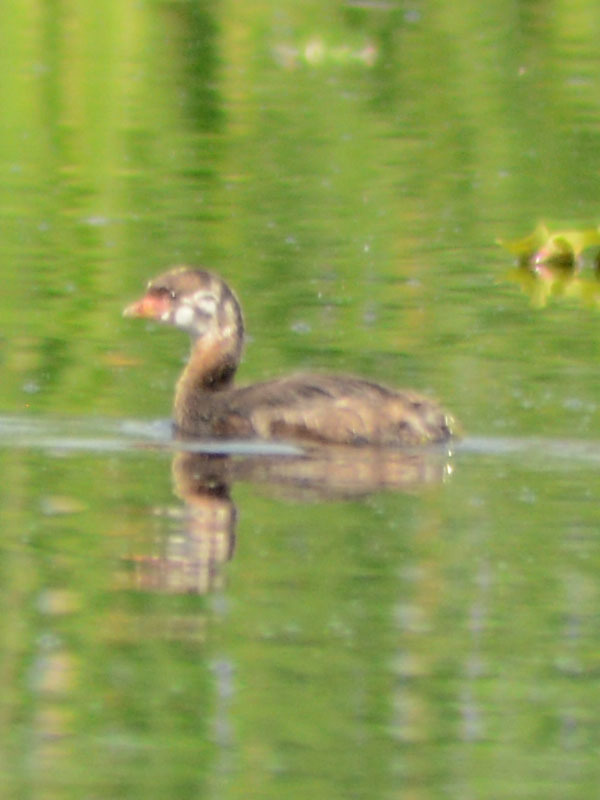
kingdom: Animalia
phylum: Chordata
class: Aves
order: Podicipediformes
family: Podicipedidae
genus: Podilymbus
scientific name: Podilymbus podiceps
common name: Pied-billed grebe
